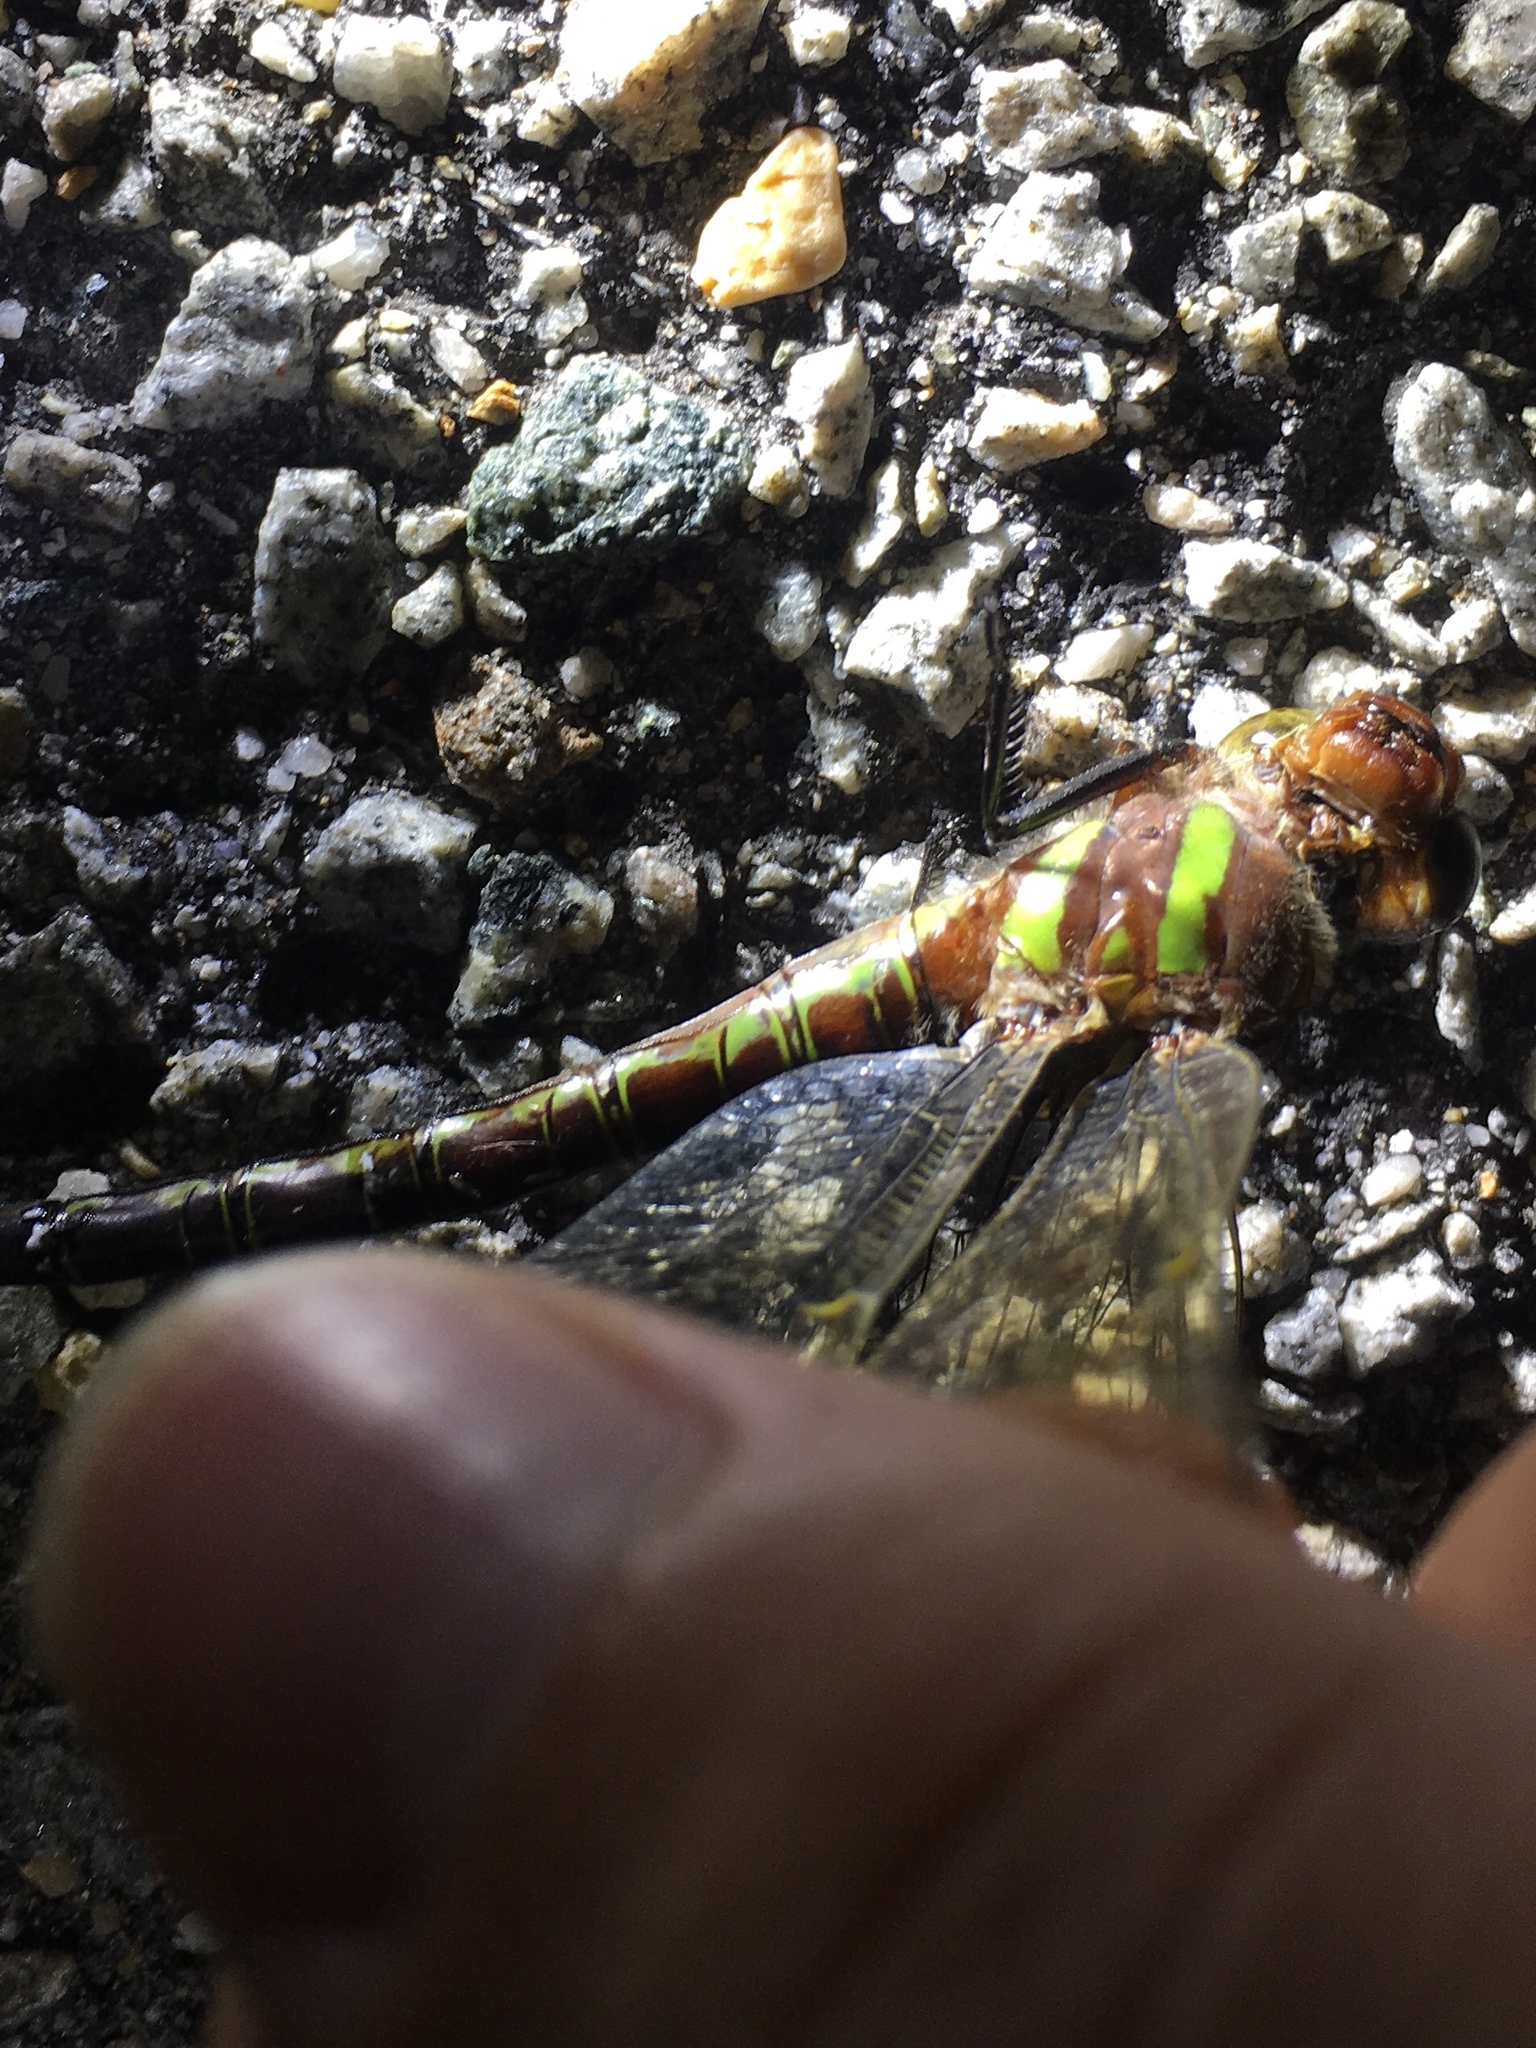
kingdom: Animalia
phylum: Arthropoda
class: Insecta
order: Odonata
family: Aeshnidae
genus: Epiaeschna
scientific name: Epiaeschna heros
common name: Swamp darner
